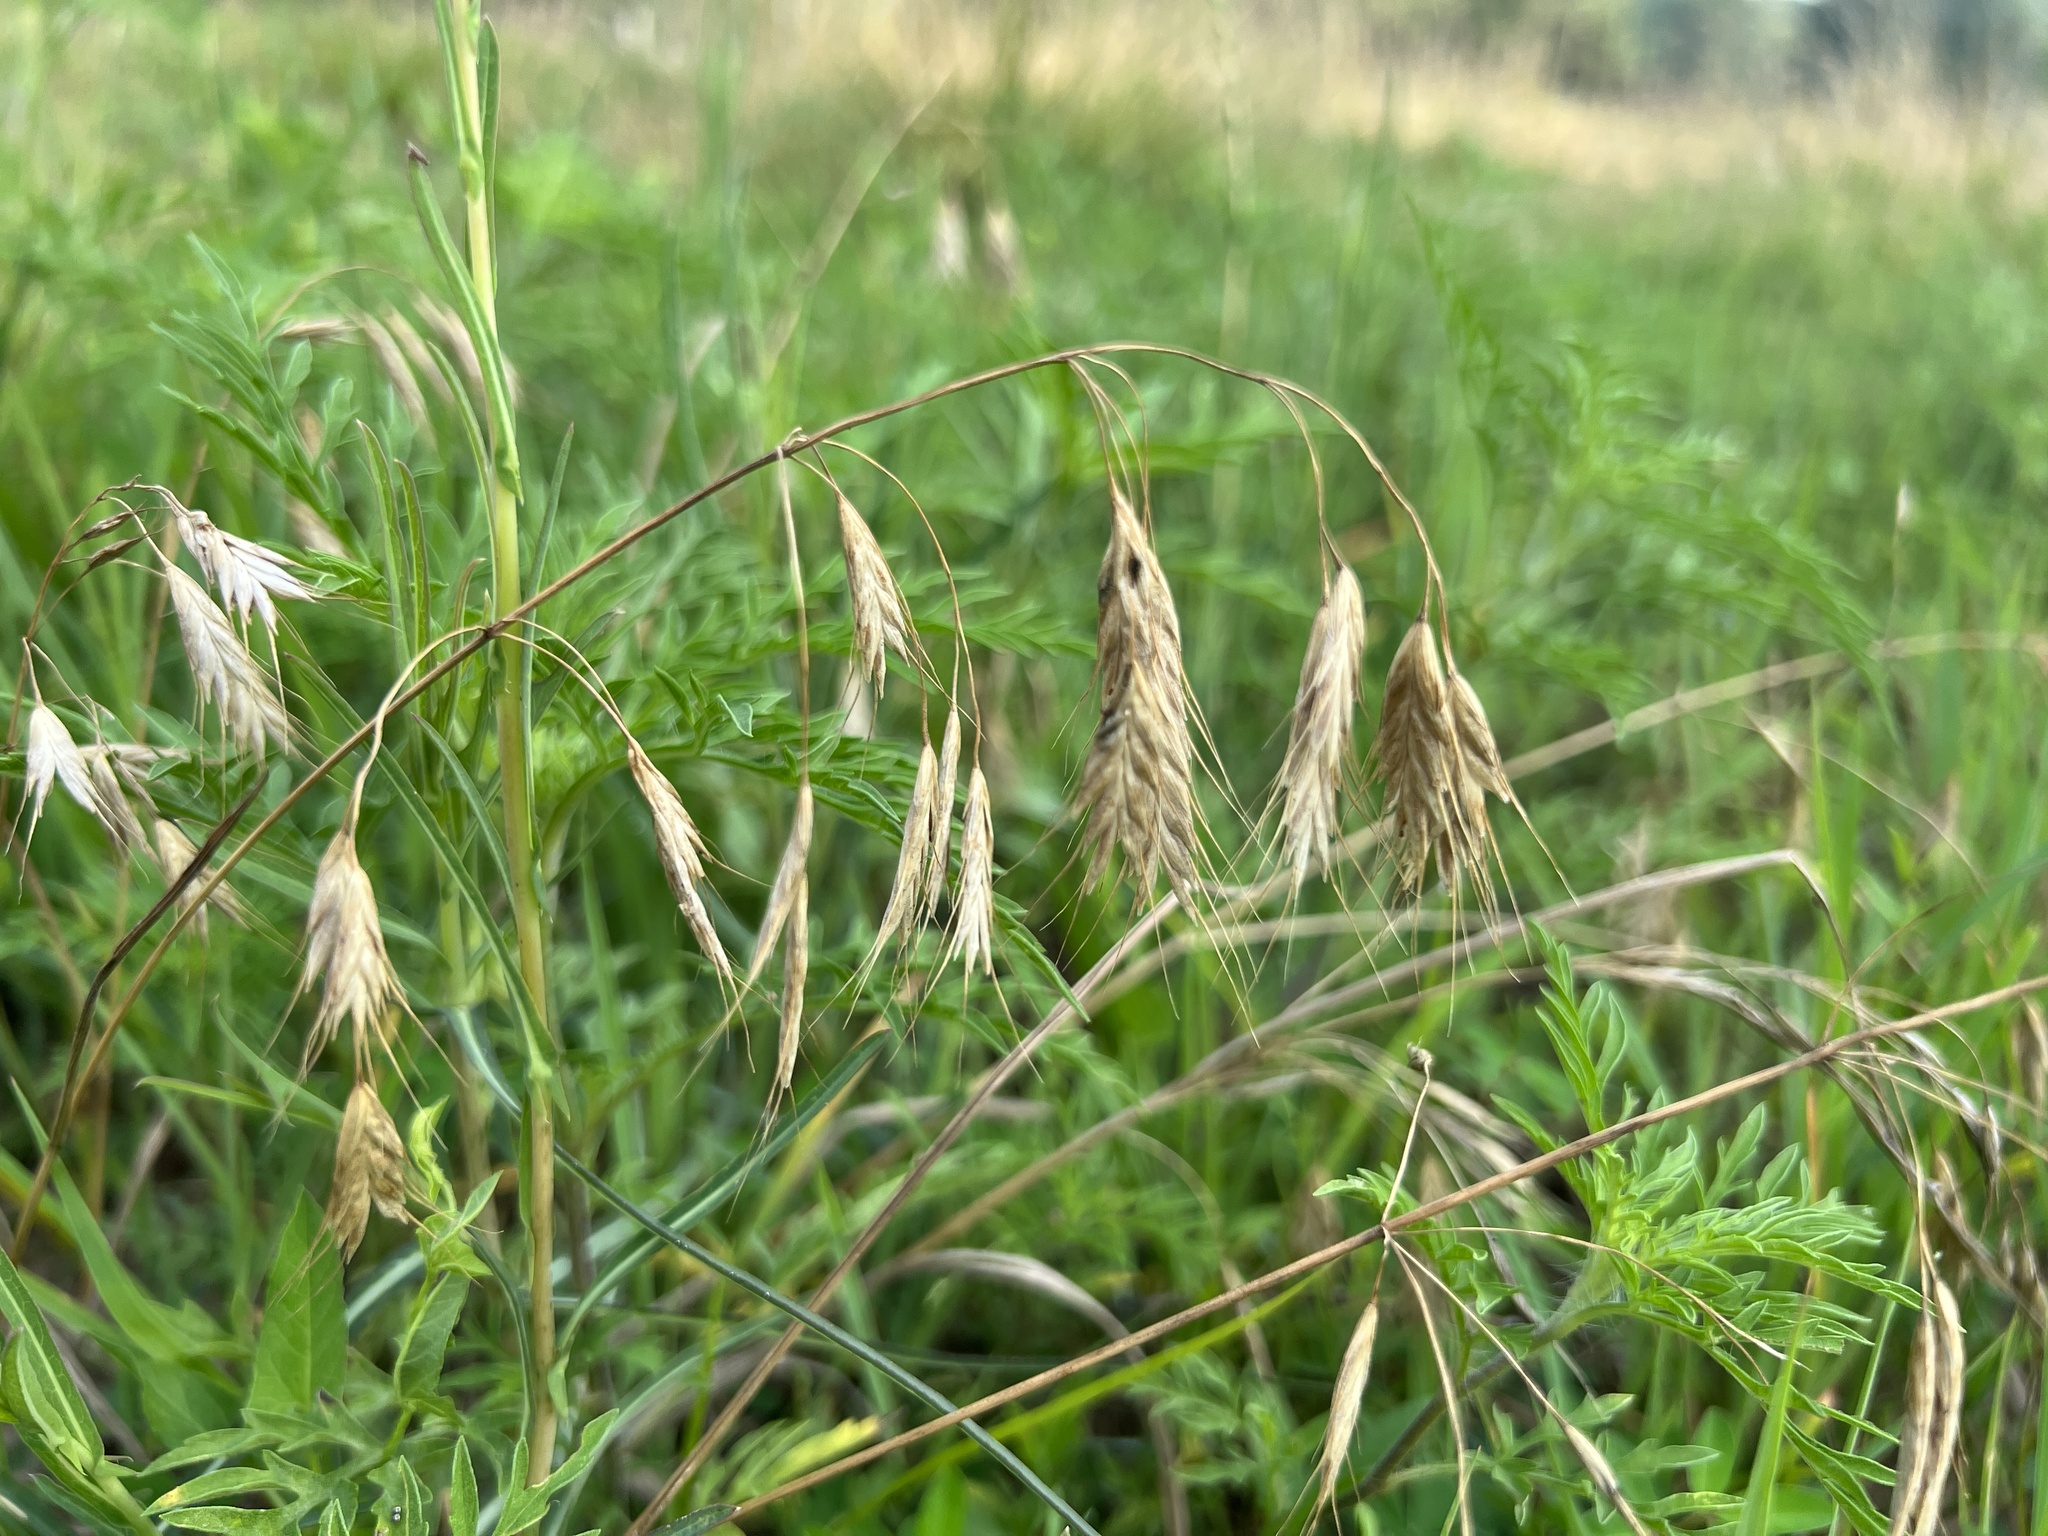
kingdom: Plantae
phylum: Tracheophyta
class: Liliopsida
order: Poales
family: Poaceae
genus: Bromus
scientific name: Bromus japonicus
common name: Japanese brome
